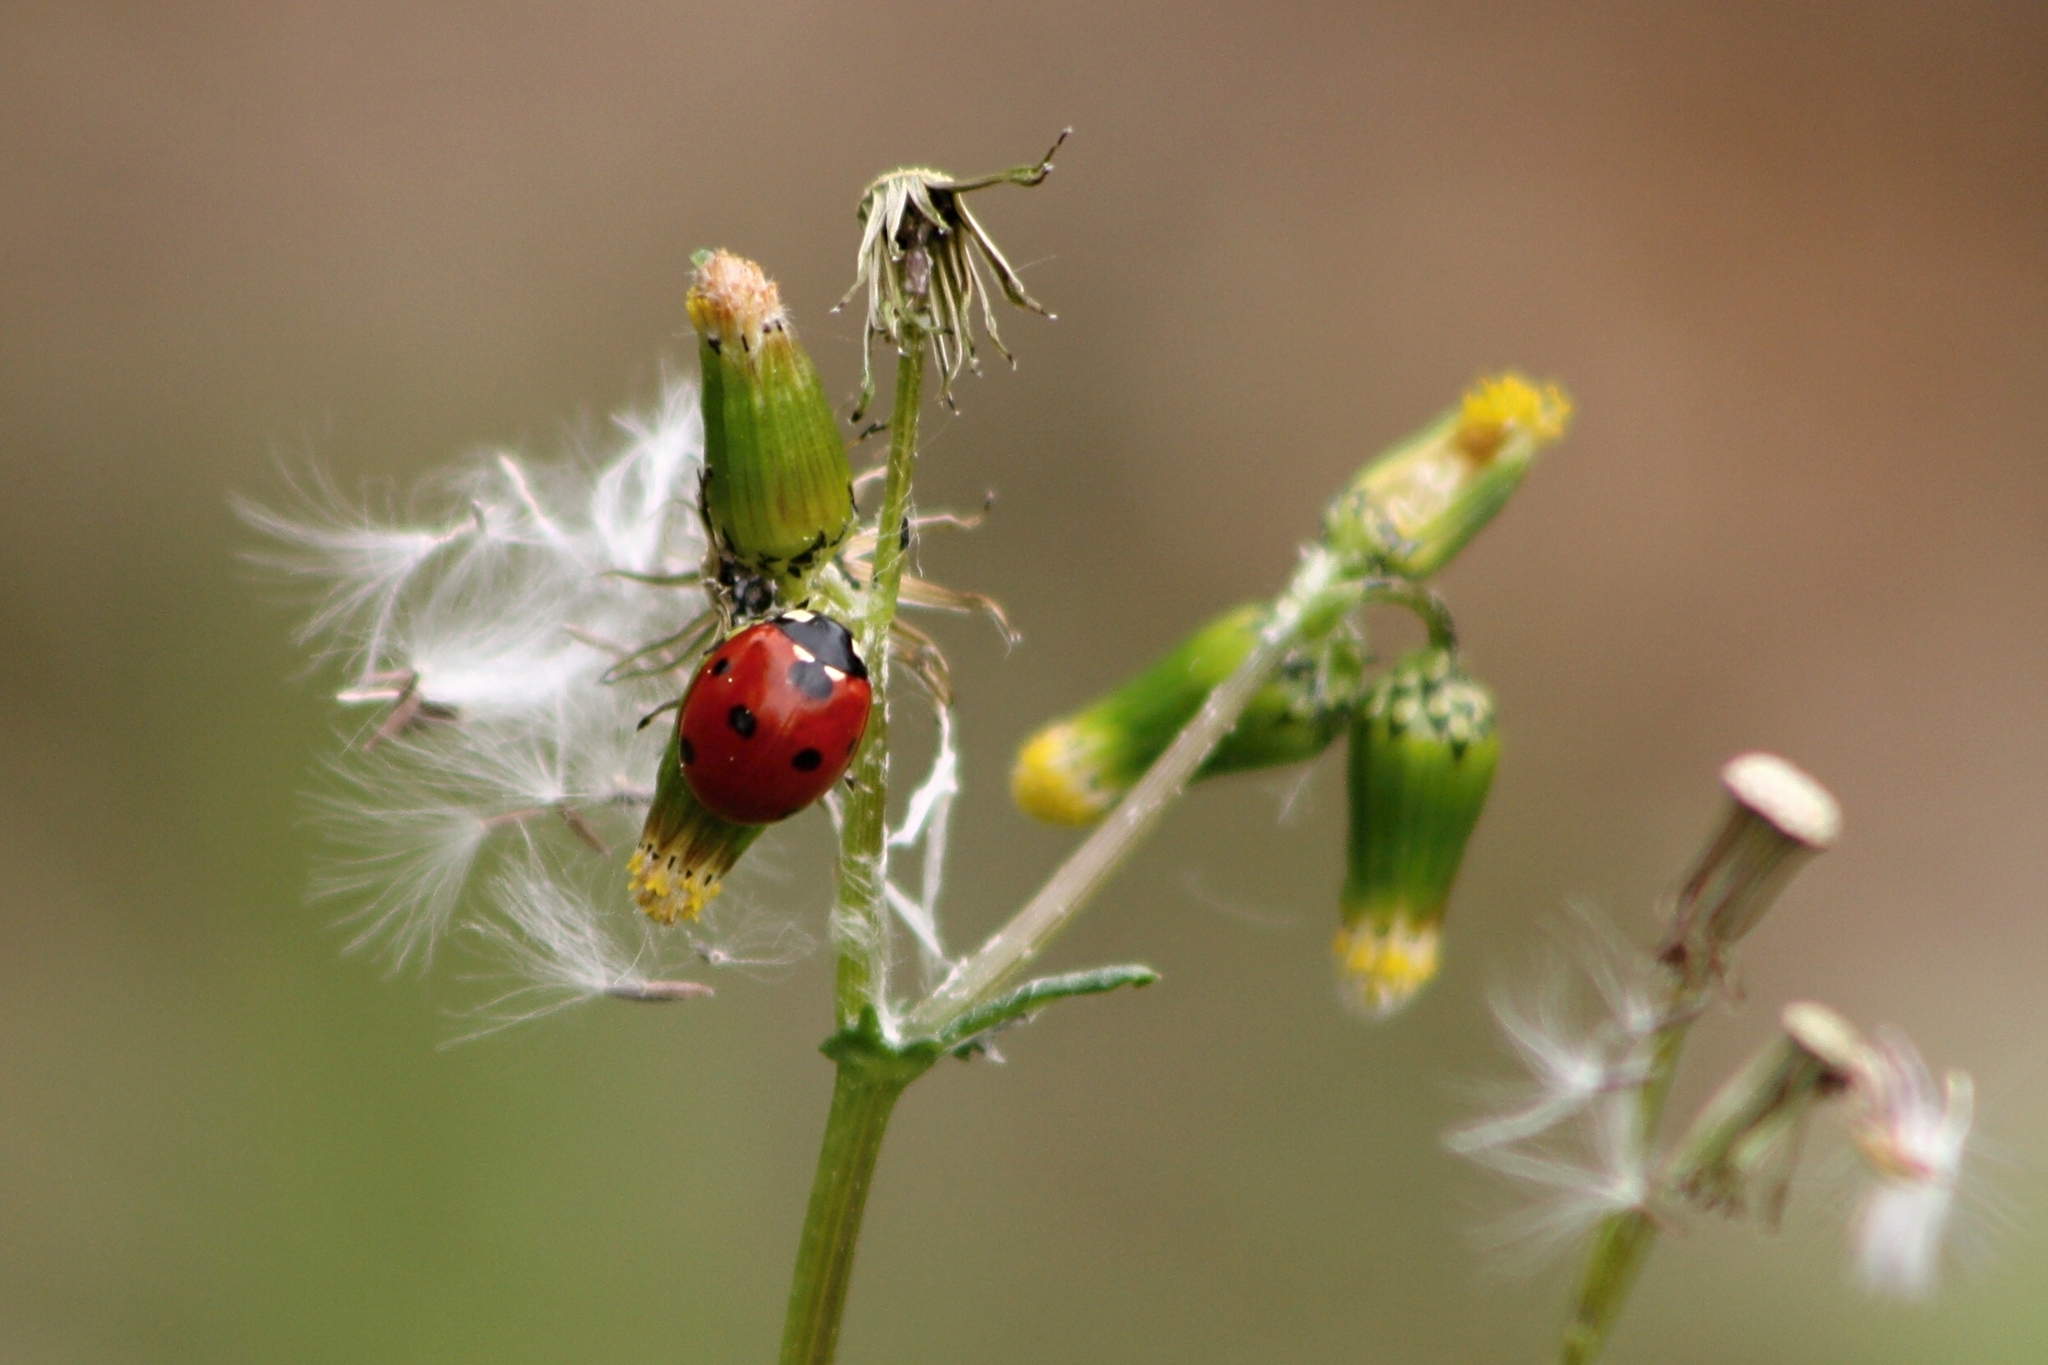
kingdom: Animalia
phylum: Arthropoda
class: Insecta
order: Coleoptera
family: Coccinellidae
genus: Coccinella
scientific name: Coccinella septempunctata
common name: Sevenspotted lady beetle
